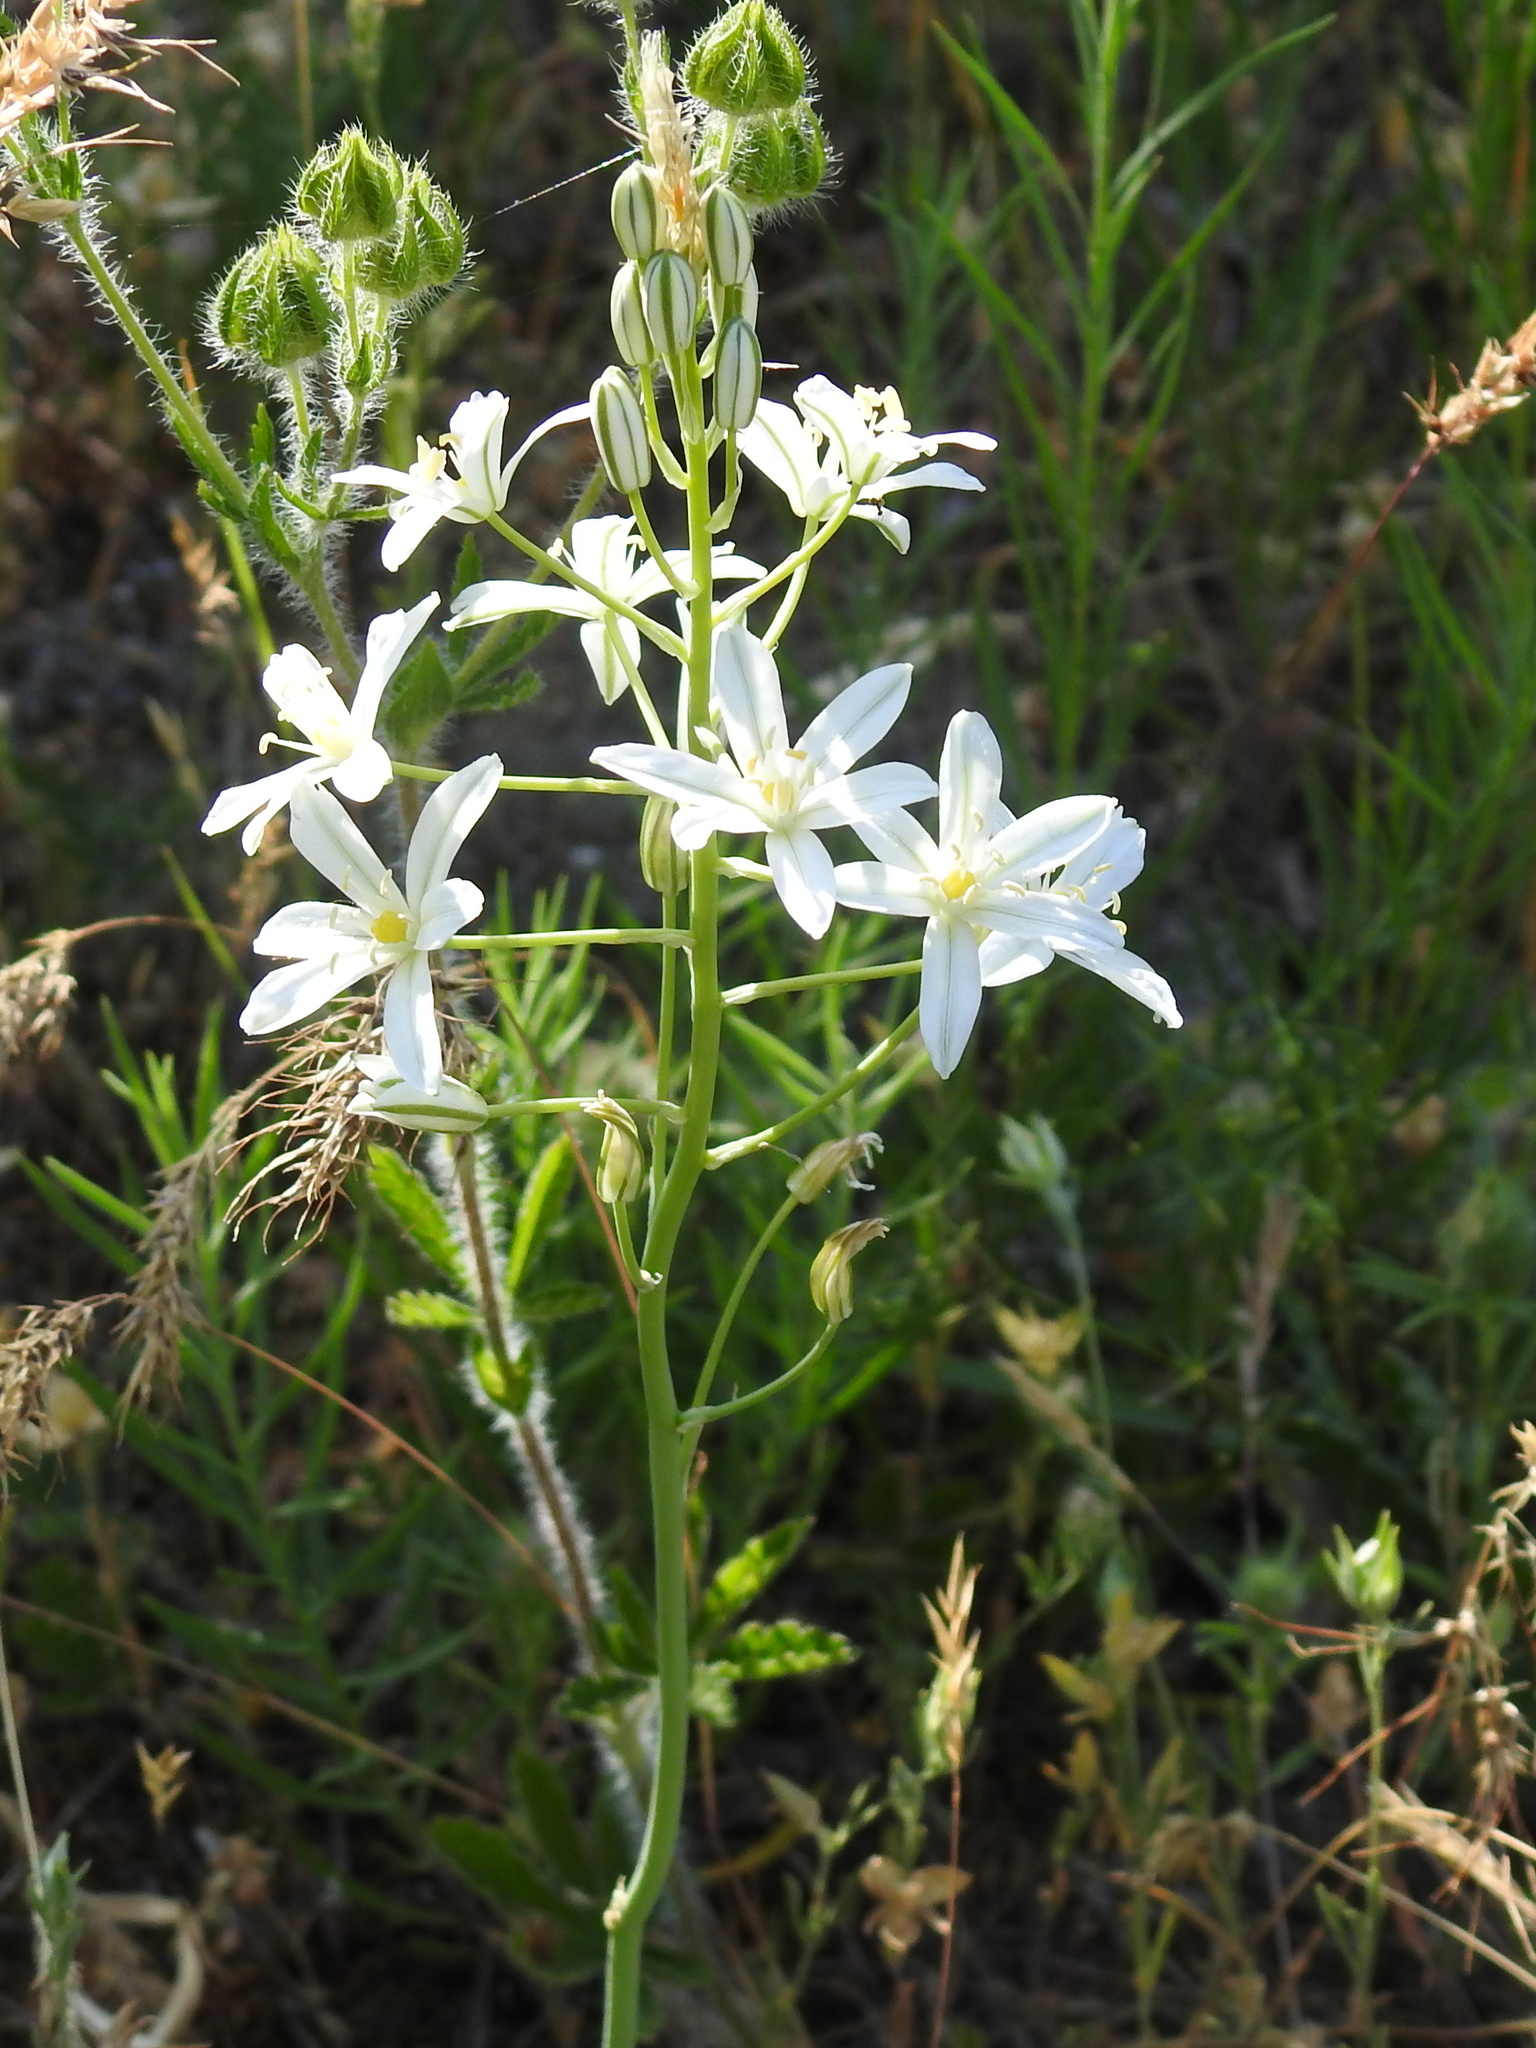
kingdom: Plantae
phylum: Tracheophyta
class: Liliopsida
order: Asparagales
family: Asparagaceae
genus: Ornithogalum
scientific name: Ornithogalum ponticum
